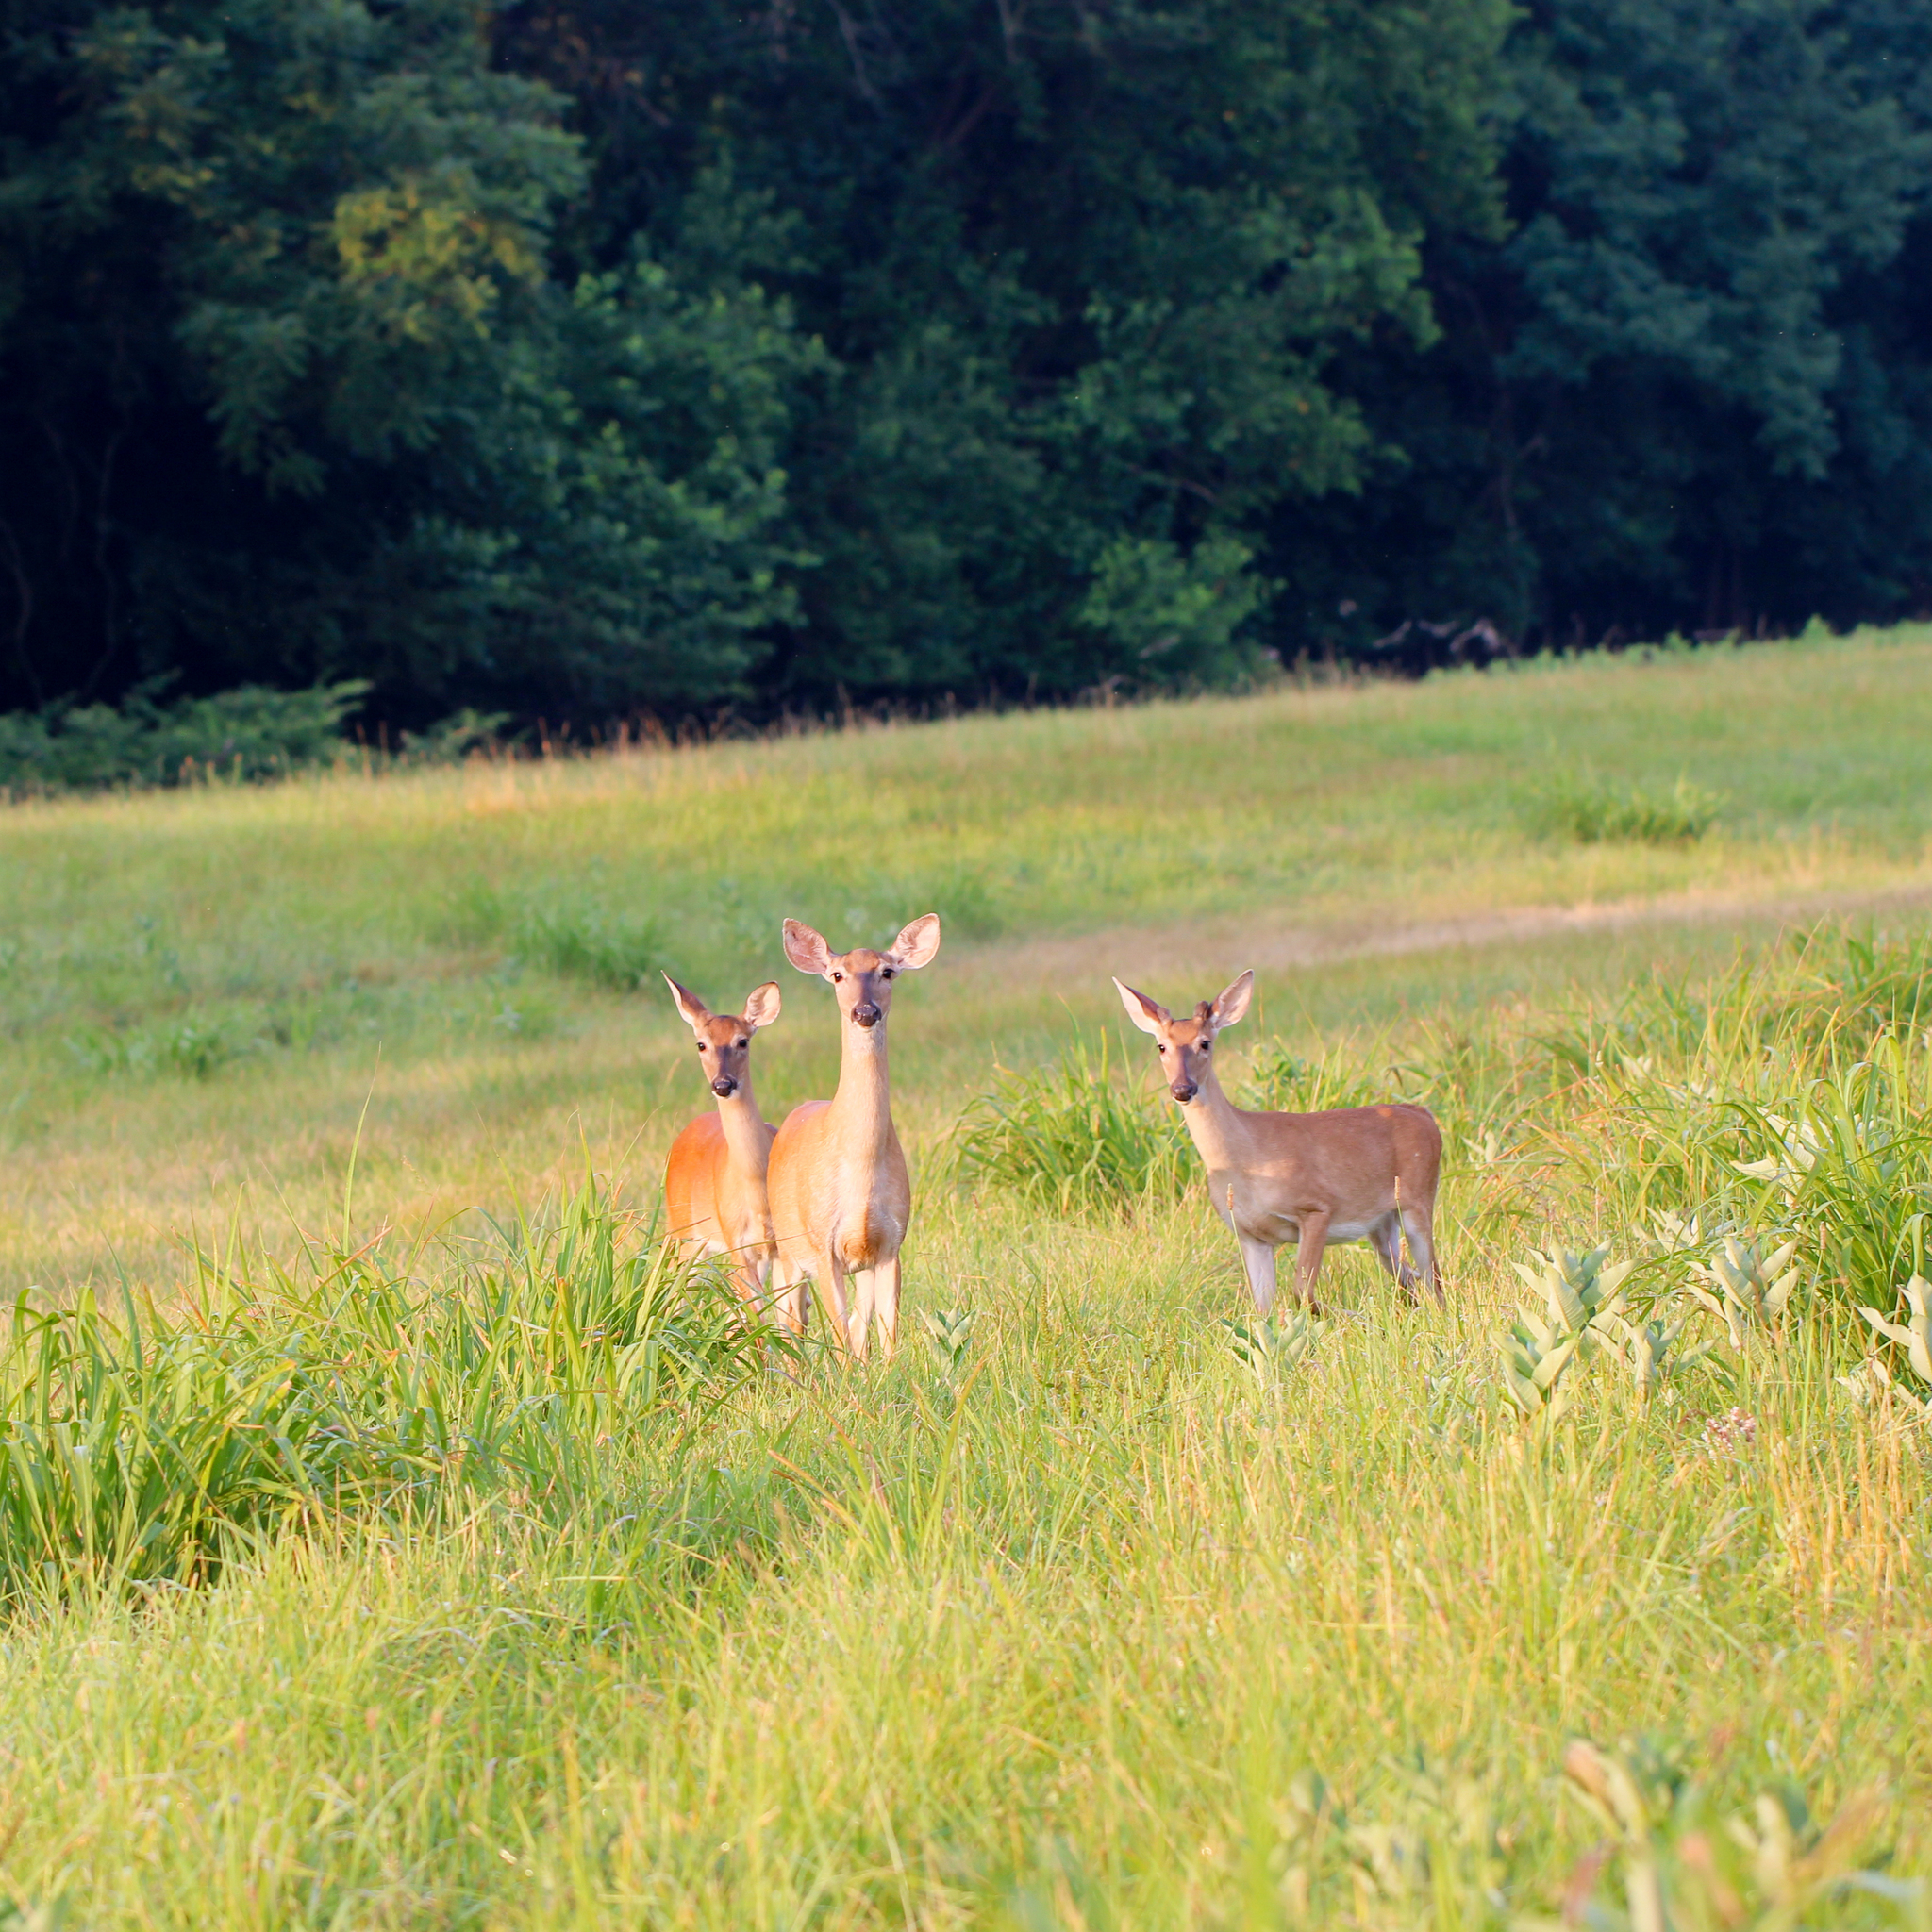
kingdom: Animalia
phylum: Chordata
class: Mammalia
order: Artiodactyla
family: Cervidae
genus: Odocoileus
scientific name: Odocoileus virginianus
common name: White-tailed deer
